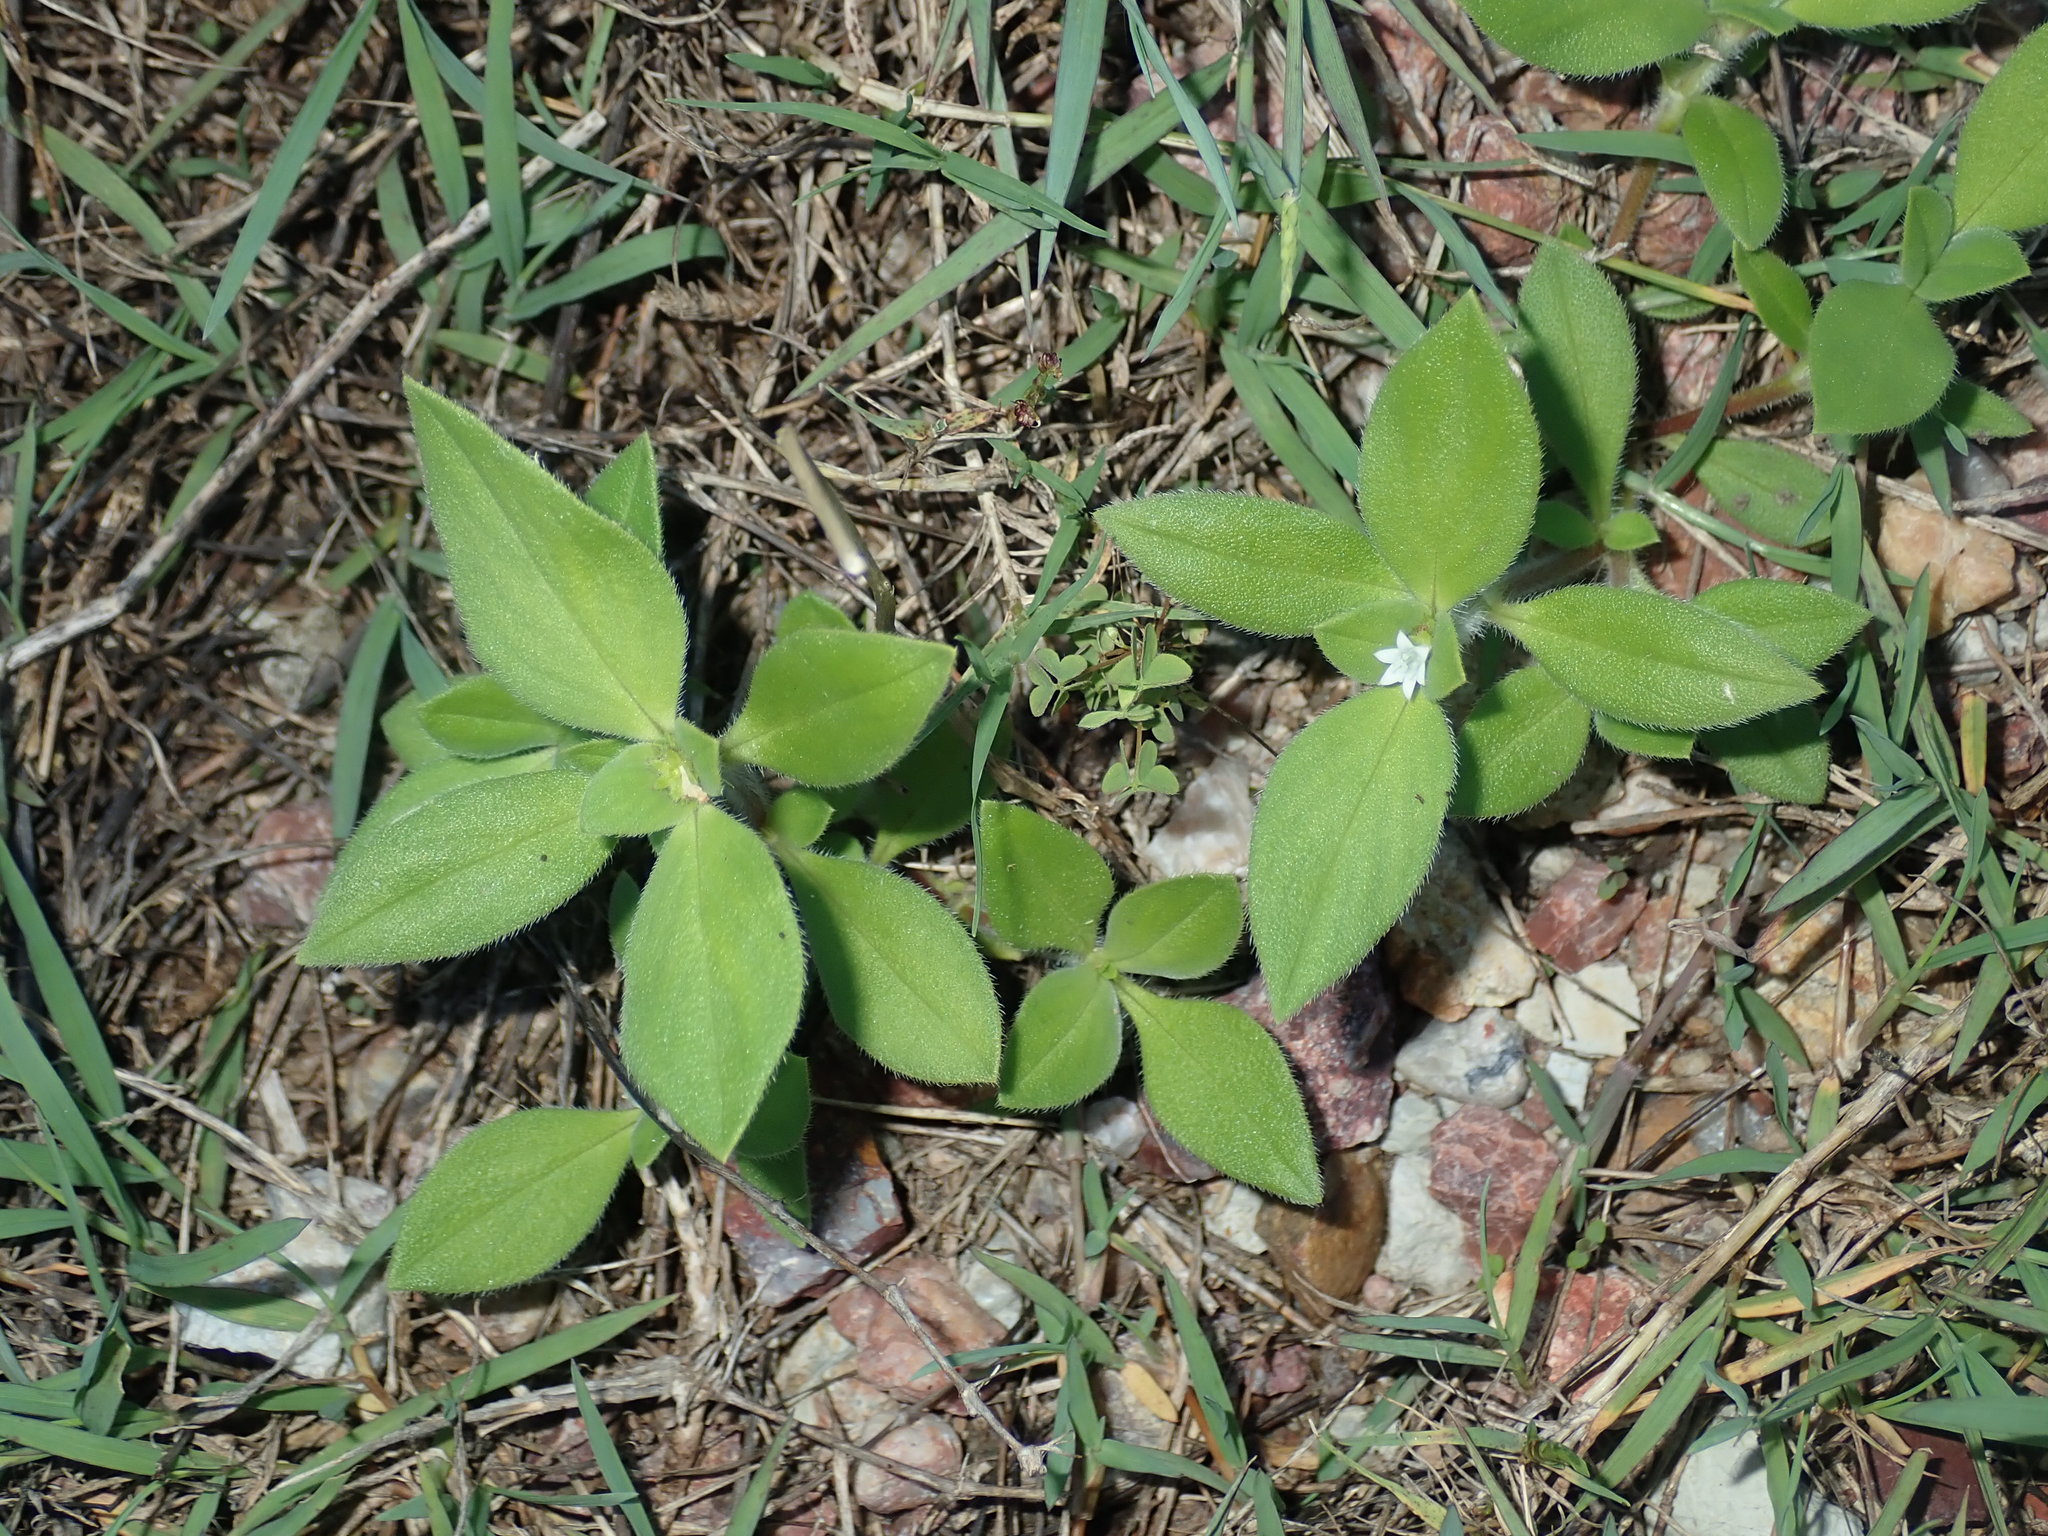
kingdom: Plantae
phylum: Tracheophyta
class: Magnoliopsida
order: Gentianales
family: Rubiaceae
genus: Richardia
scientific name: Richardia brasiliensis
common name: Tropical mexican clover
